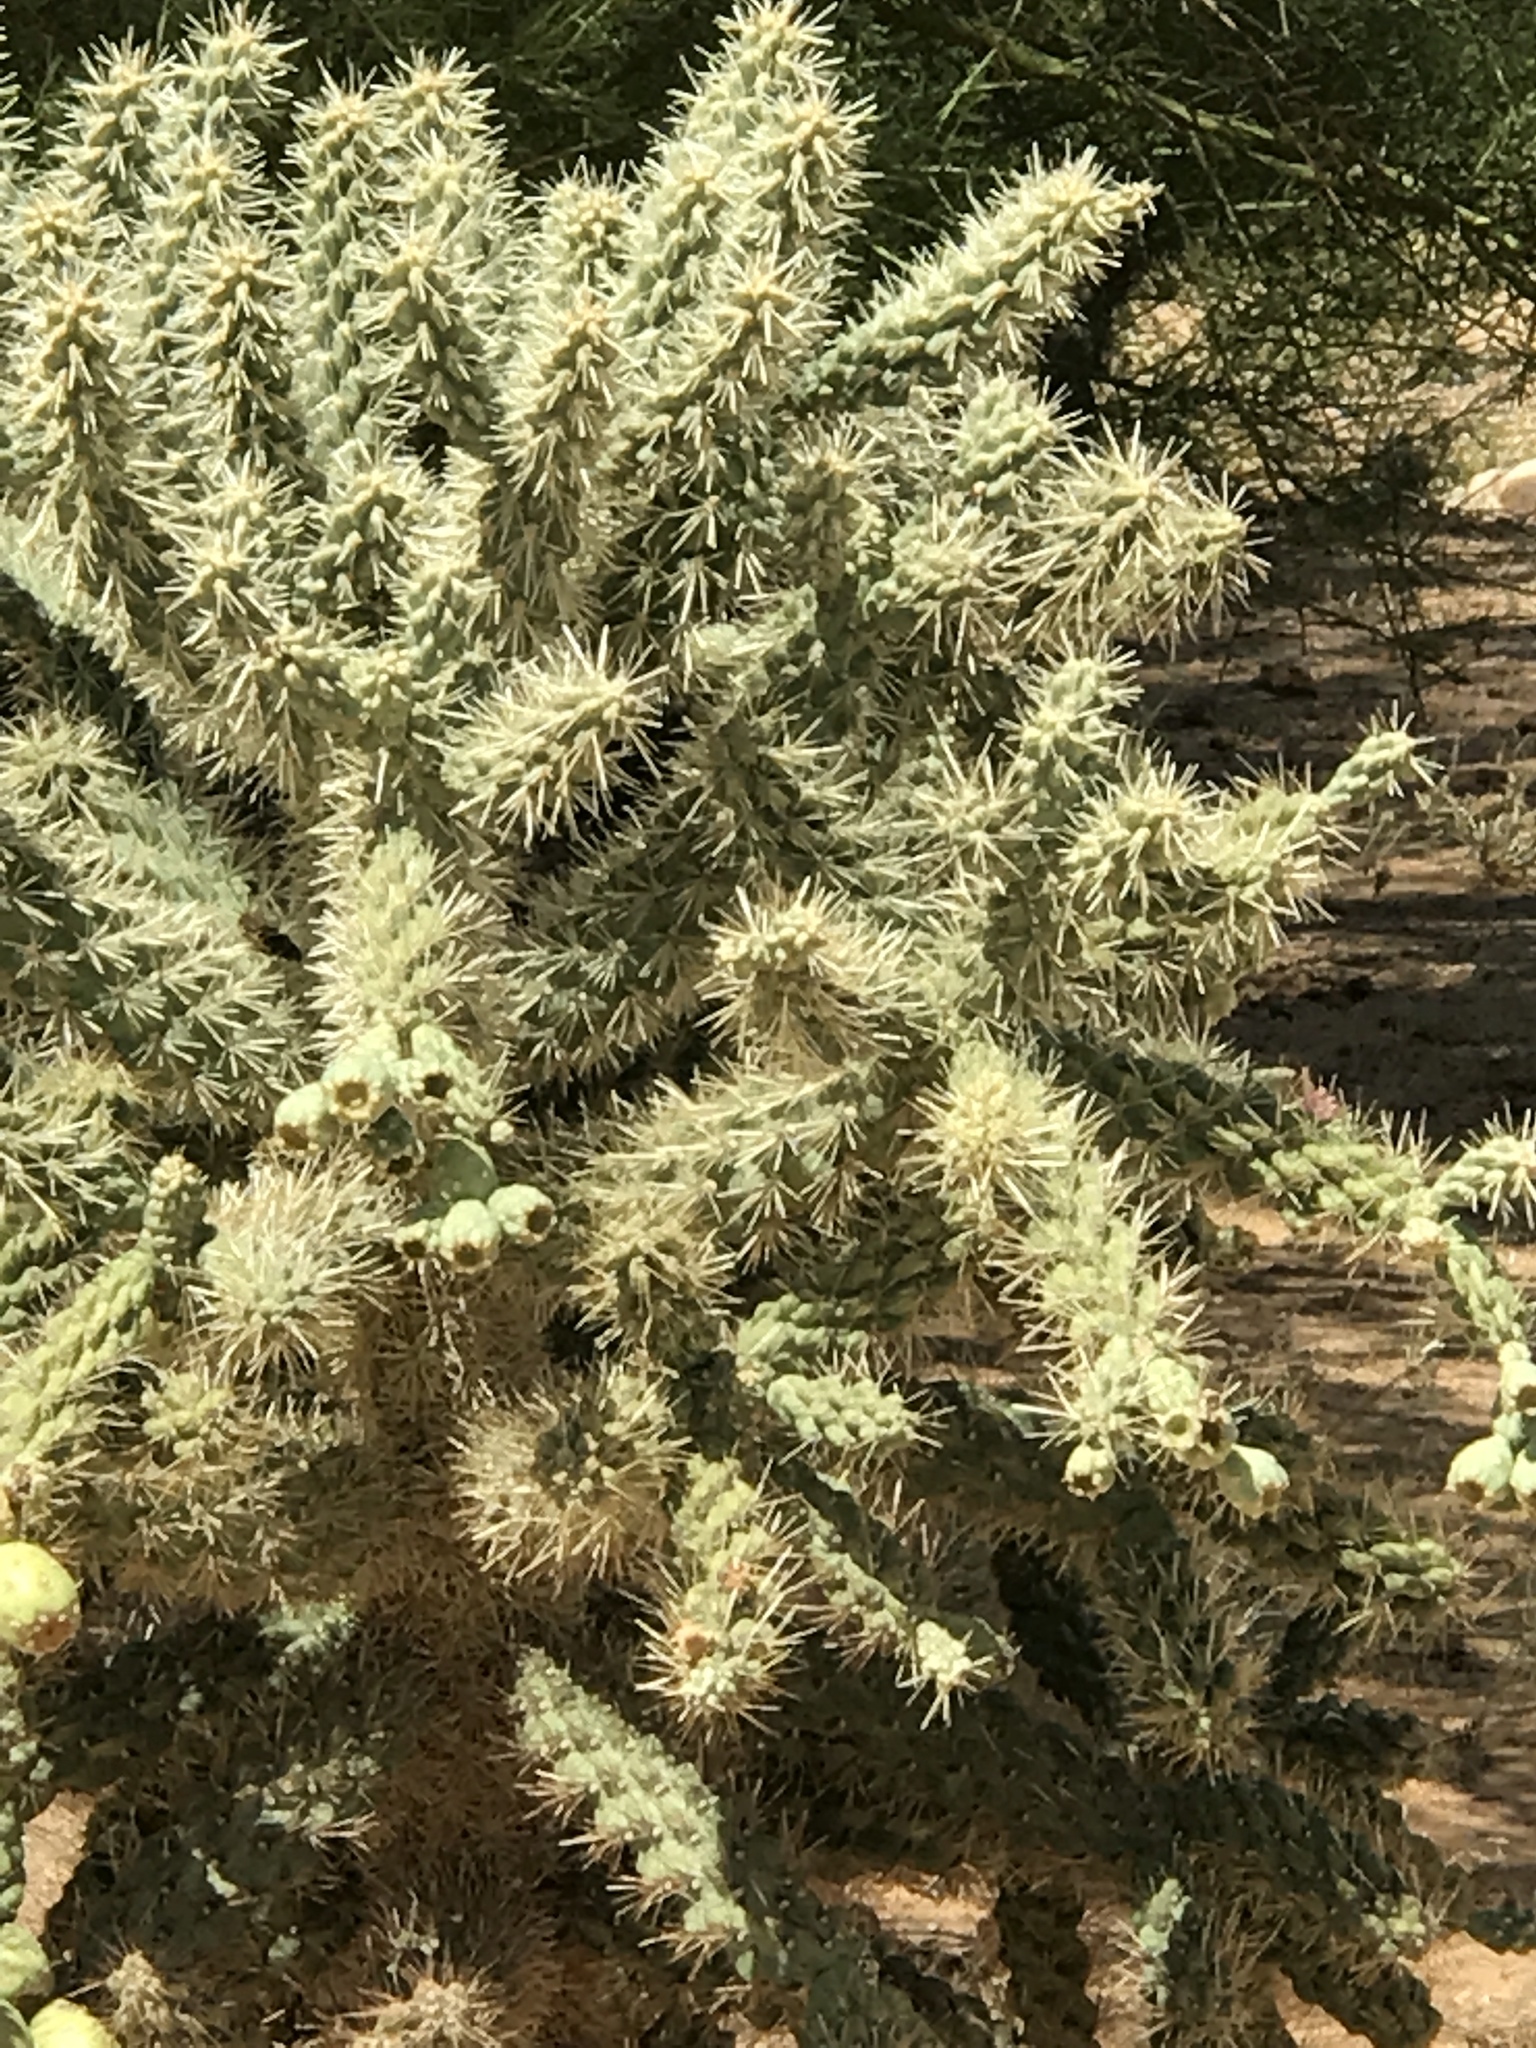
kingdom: Plantae
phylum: Tracheophyta
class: Magnoliopsida
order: Caryophyllales
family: Cactaceae
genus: Cylindropuntia
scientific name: Cylindropuntia fulgida
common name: Jumping cholla
